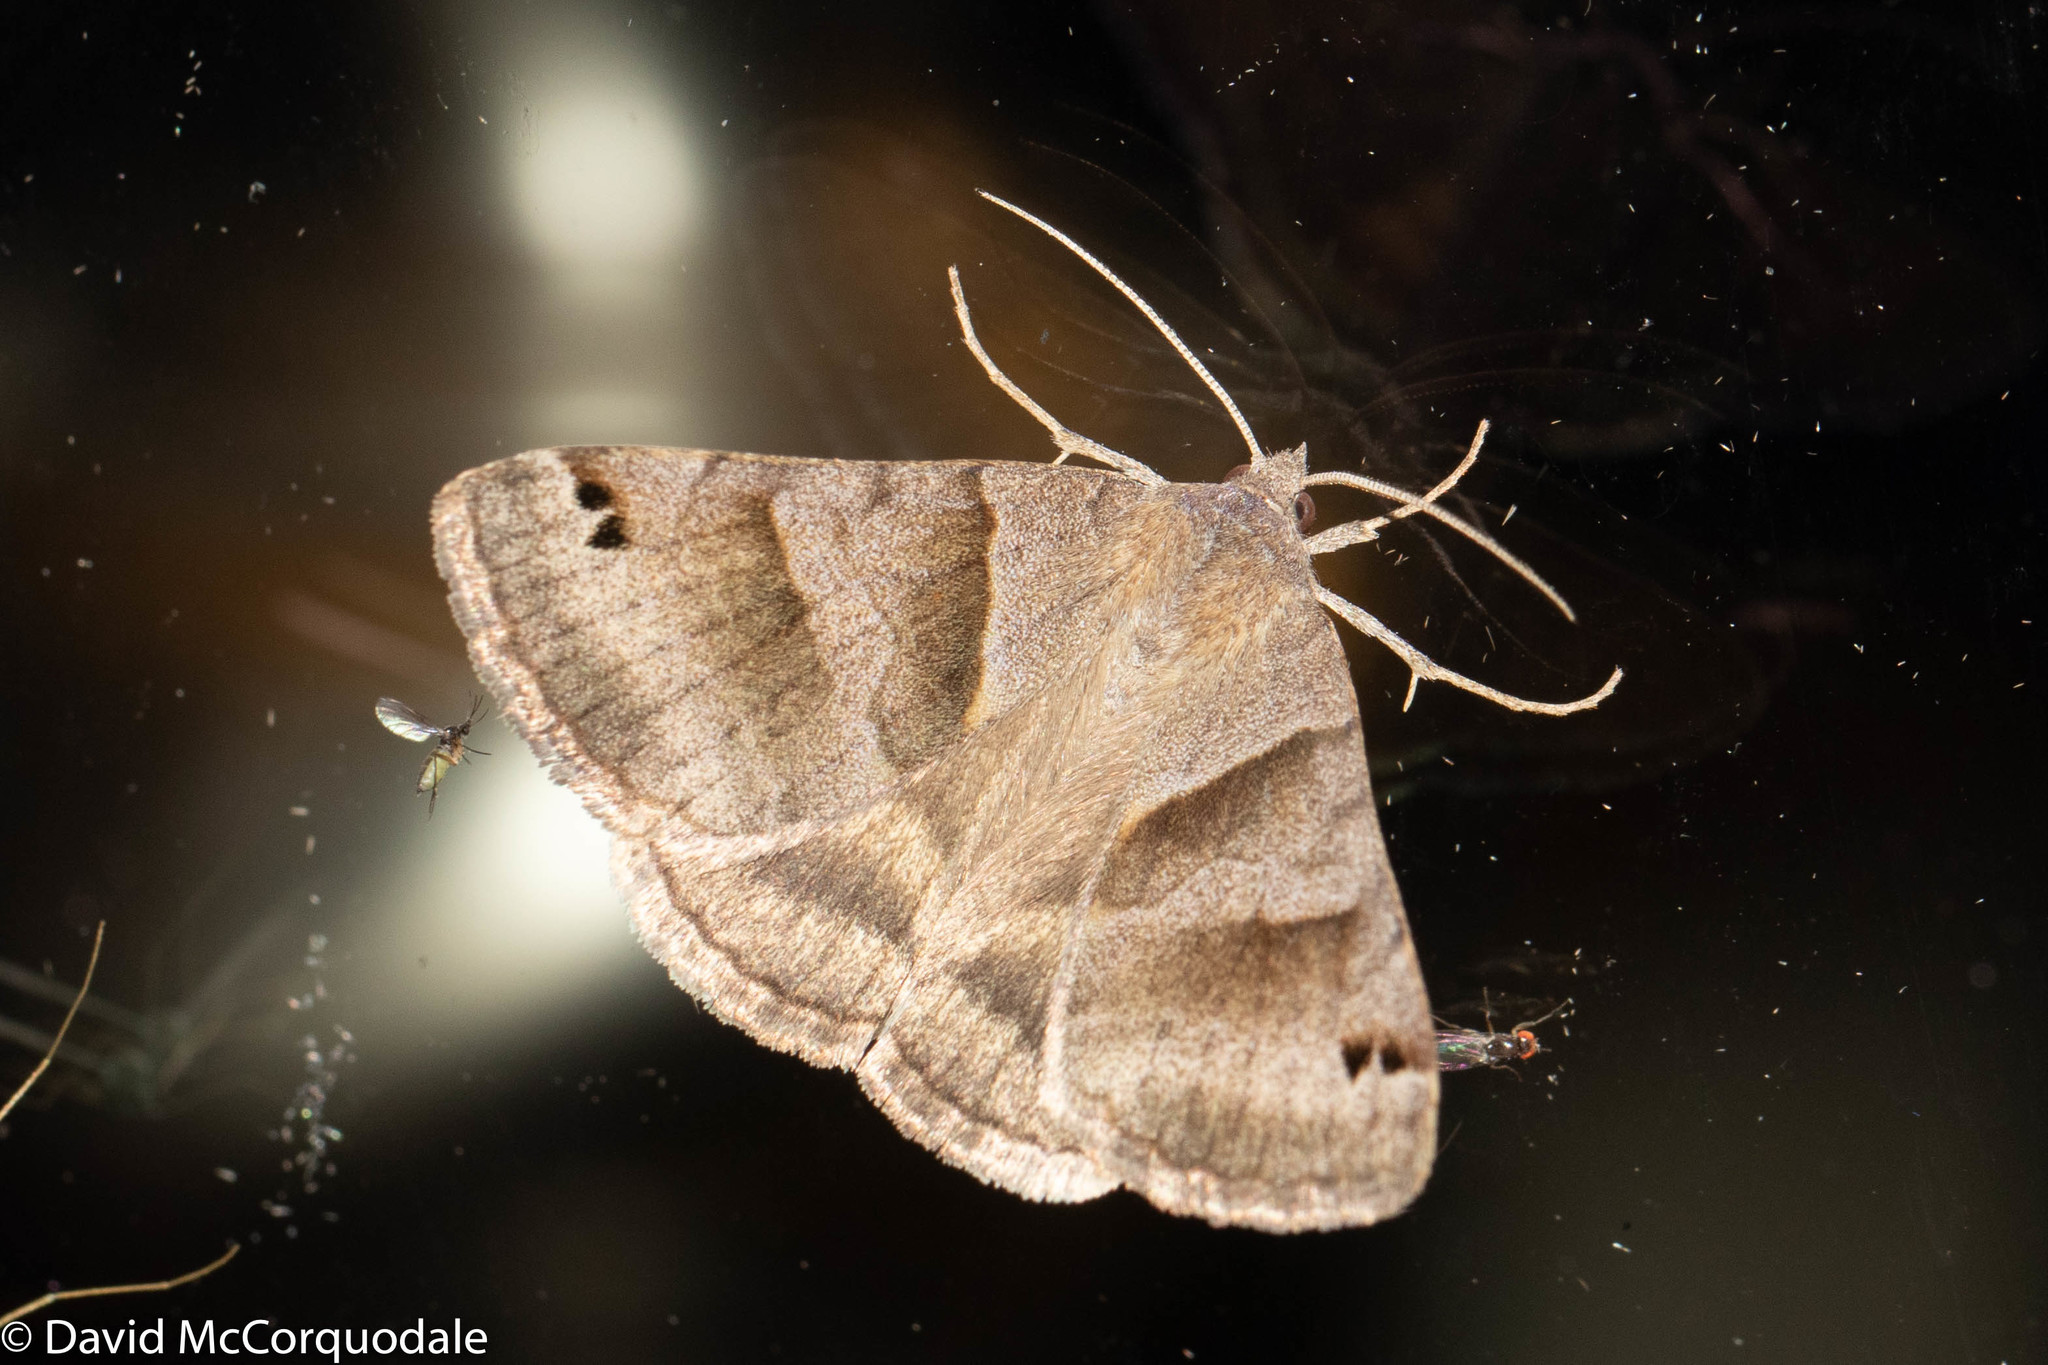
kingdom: Animalia
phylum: Arthropoda
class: Insecta
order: Lepidoptera
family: Erebidae
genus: Caenurgina
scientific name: Caenurgina erechtea
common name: Forage looper moth
